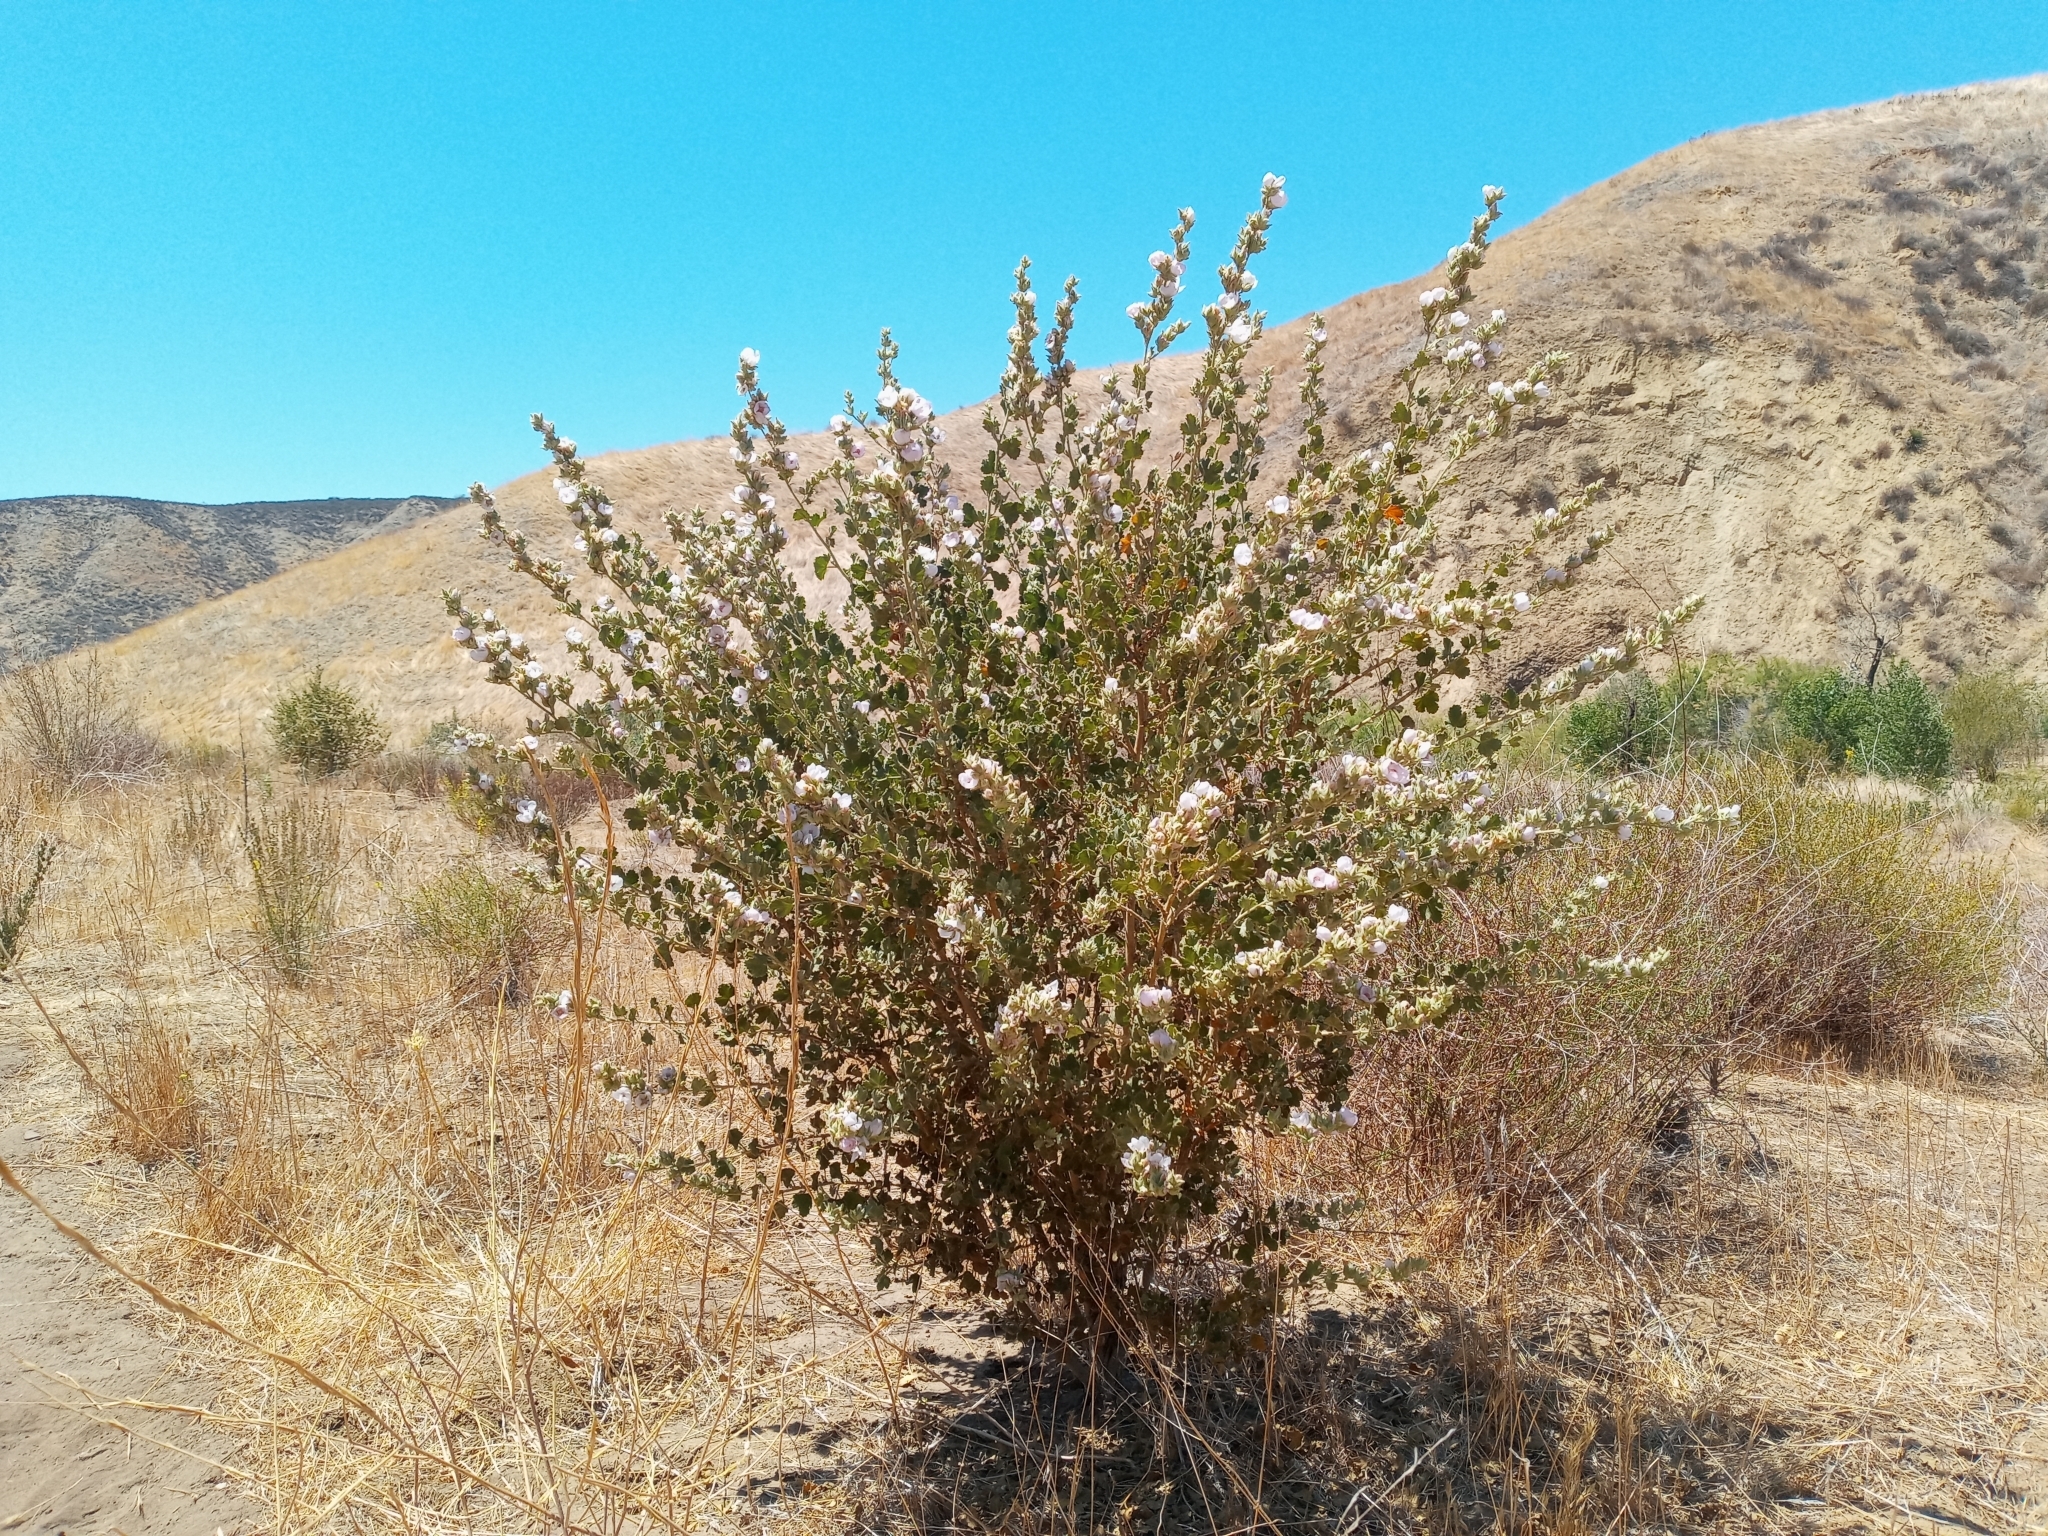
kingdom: Plantae
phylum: Tracheophyta
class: Magnoliopsida
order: Malvales
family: Malvaceae
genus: Malacothamnus
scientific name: Malacothamnus marrubioides
